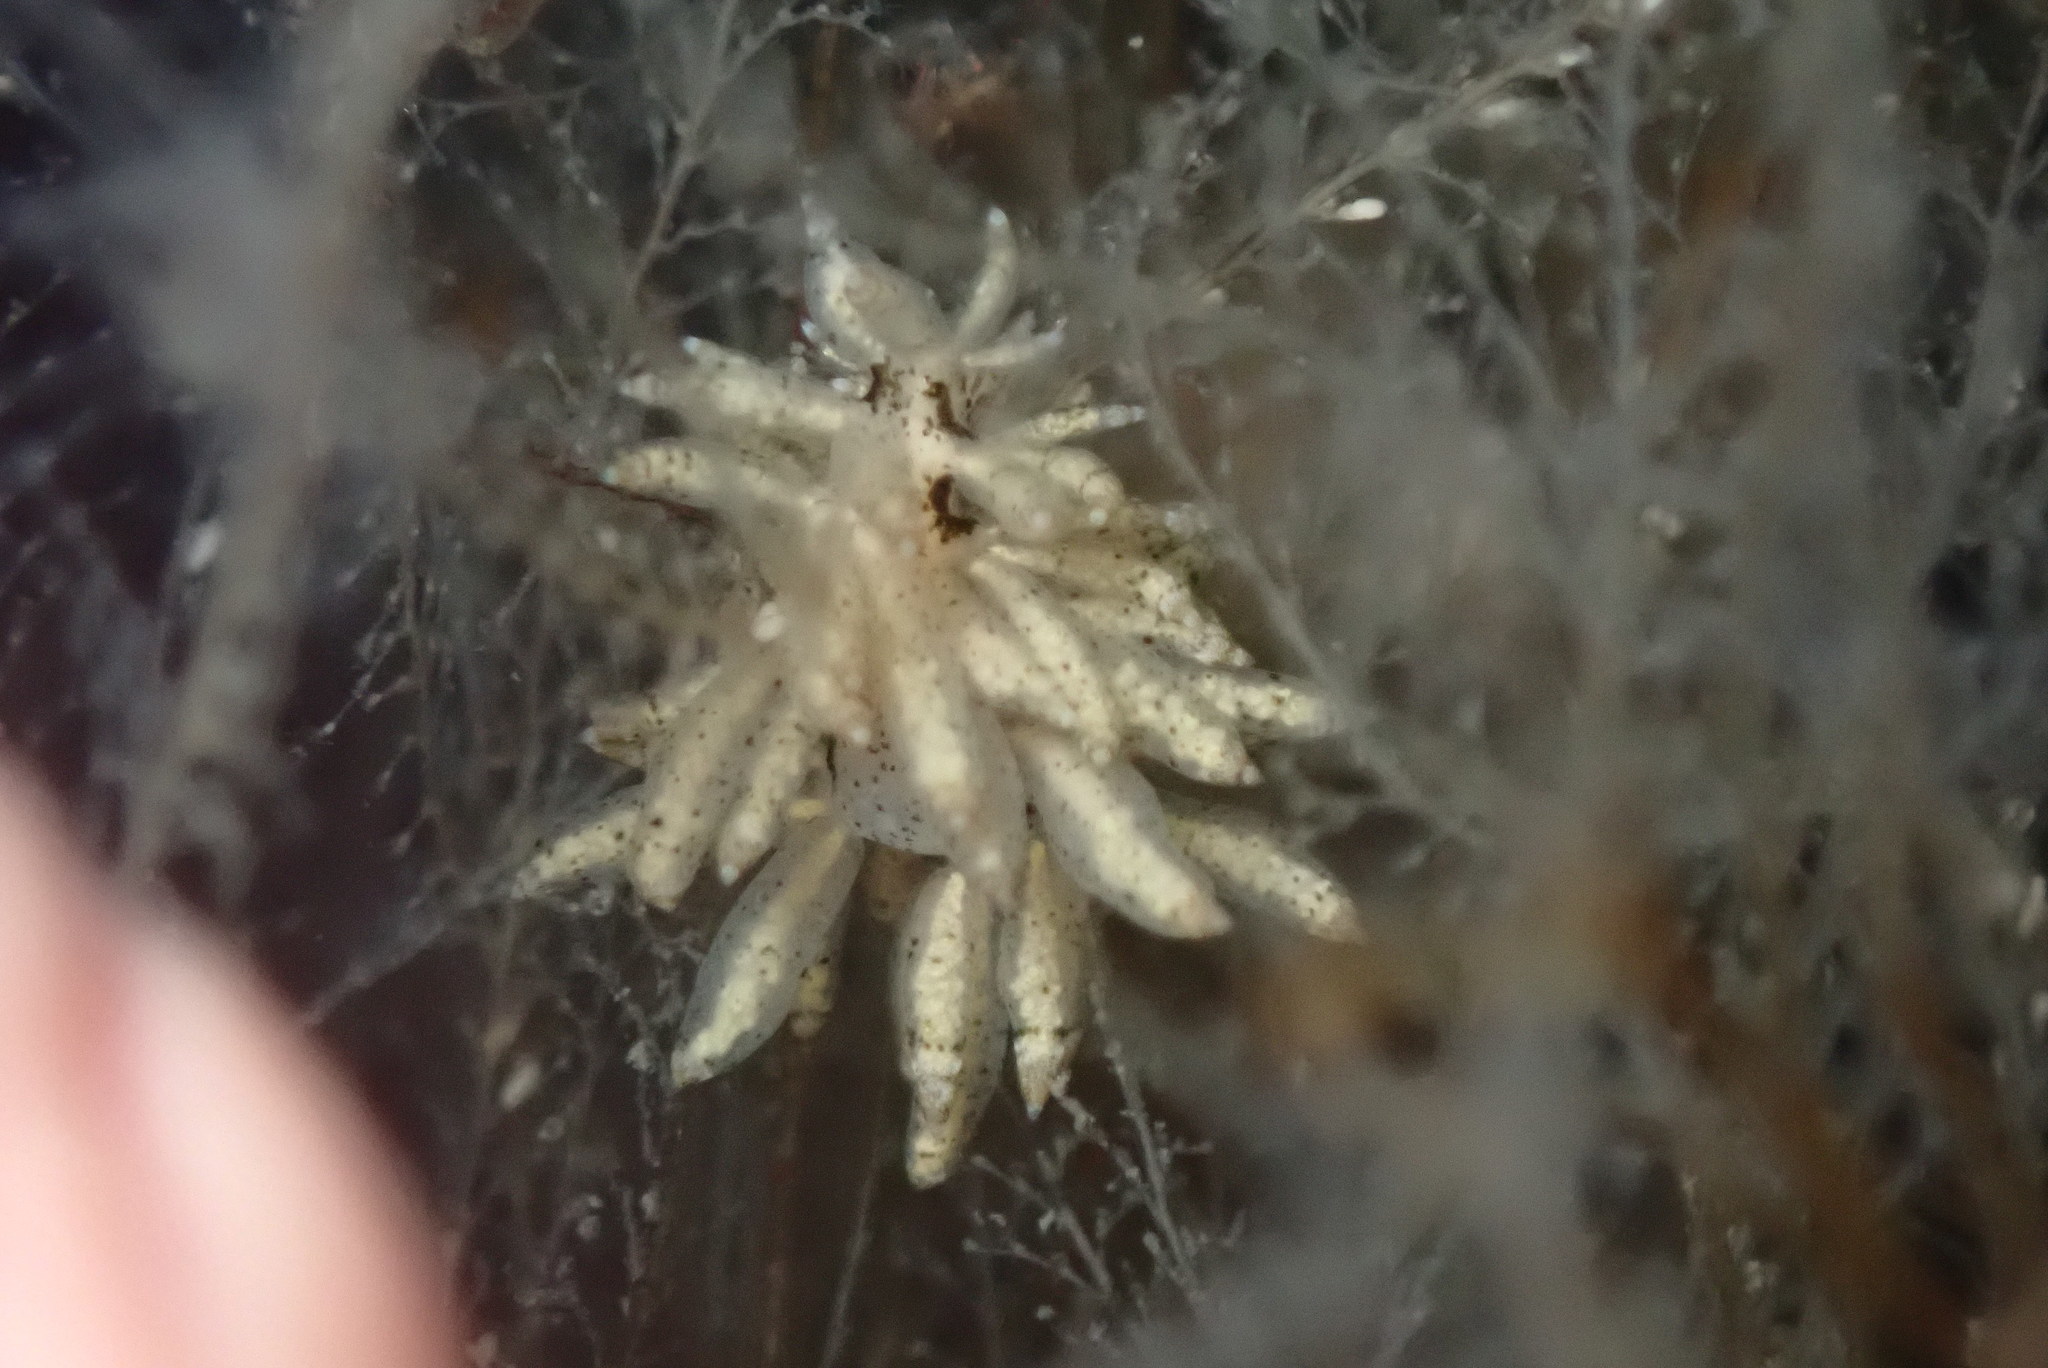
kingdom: Animalia
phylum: Mollusca
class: Gastropoda
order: Nudibranchia
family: Eubranchidae
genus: Eubranchus
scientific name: Eubranchus rustyus
